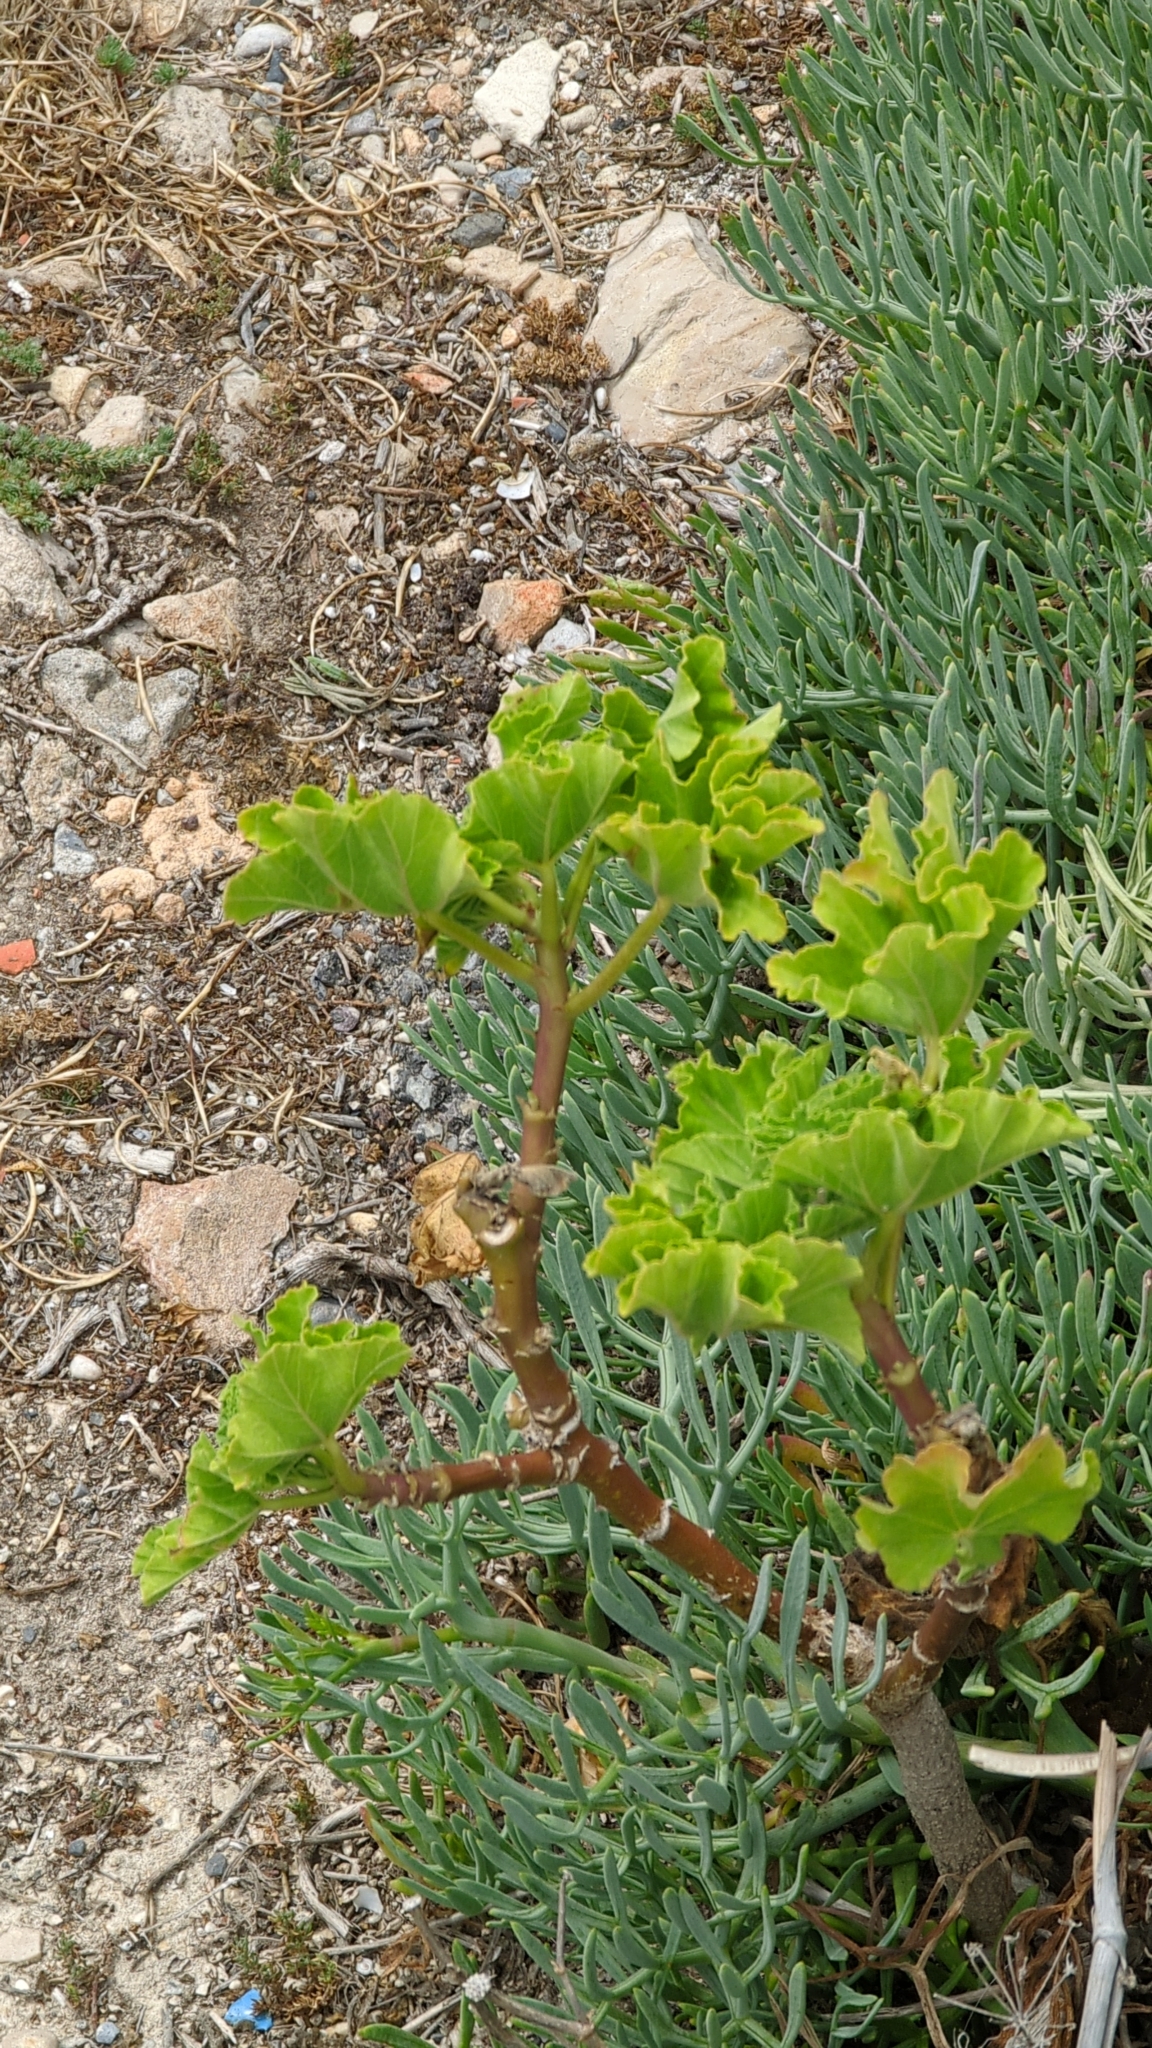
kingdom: Plantae
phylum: Tracheophyta
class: Magnoliopsida
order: Malvales
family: Malvaceae
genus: Malva
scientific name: Malva arborea
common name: Tree mallow
